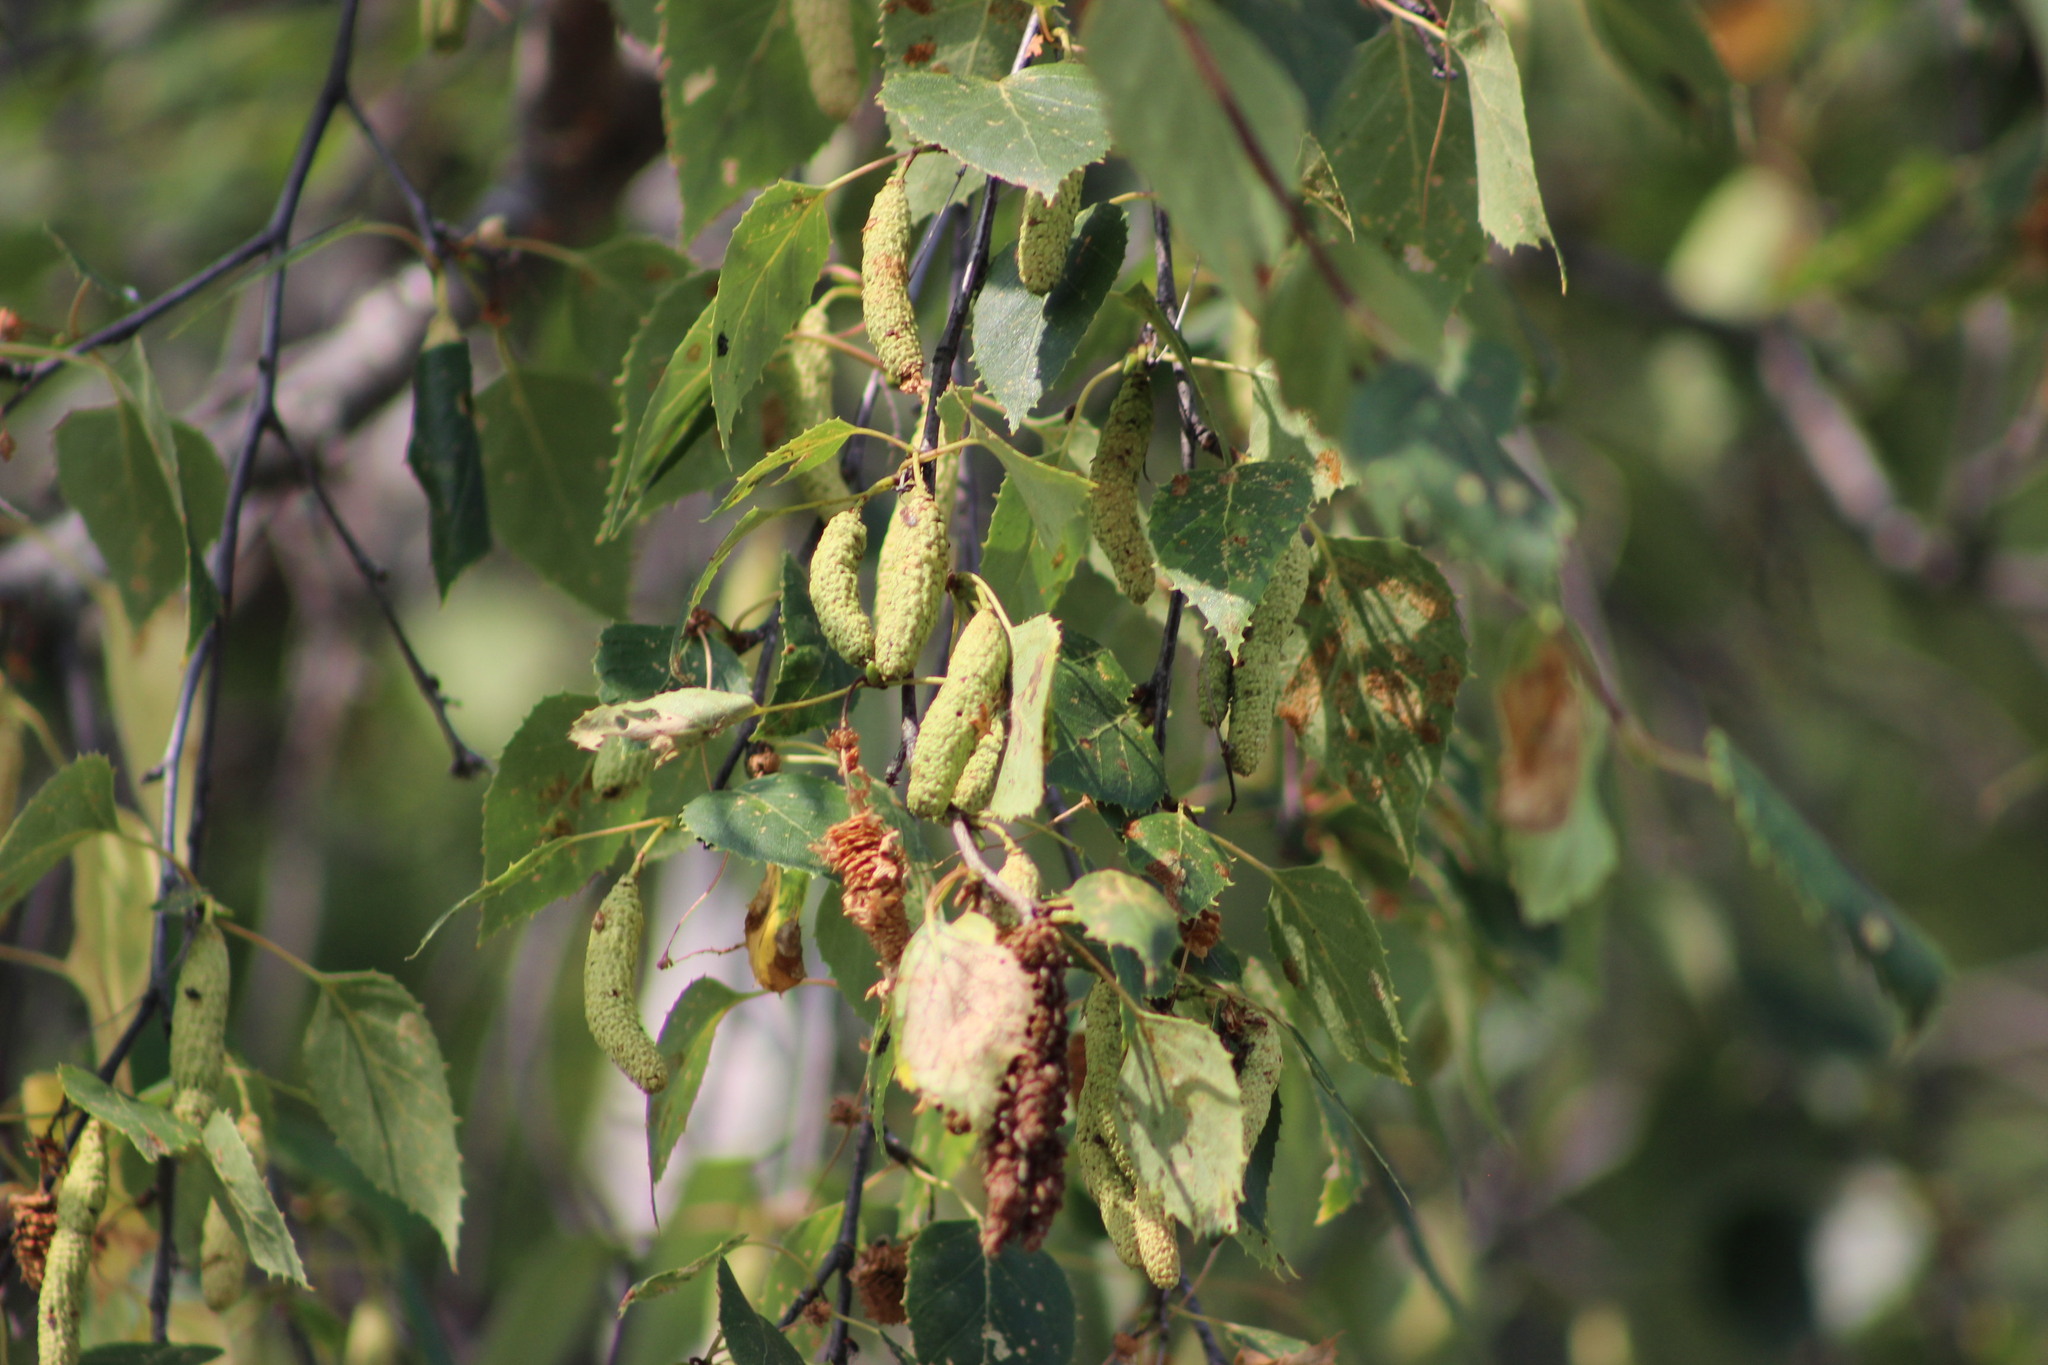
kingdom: Plantae
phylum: Tracheophyta
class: Magnoliopsida
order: Fagales
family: Betulaceae
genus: Betula
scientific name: Betula pendula
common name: Silver birch
